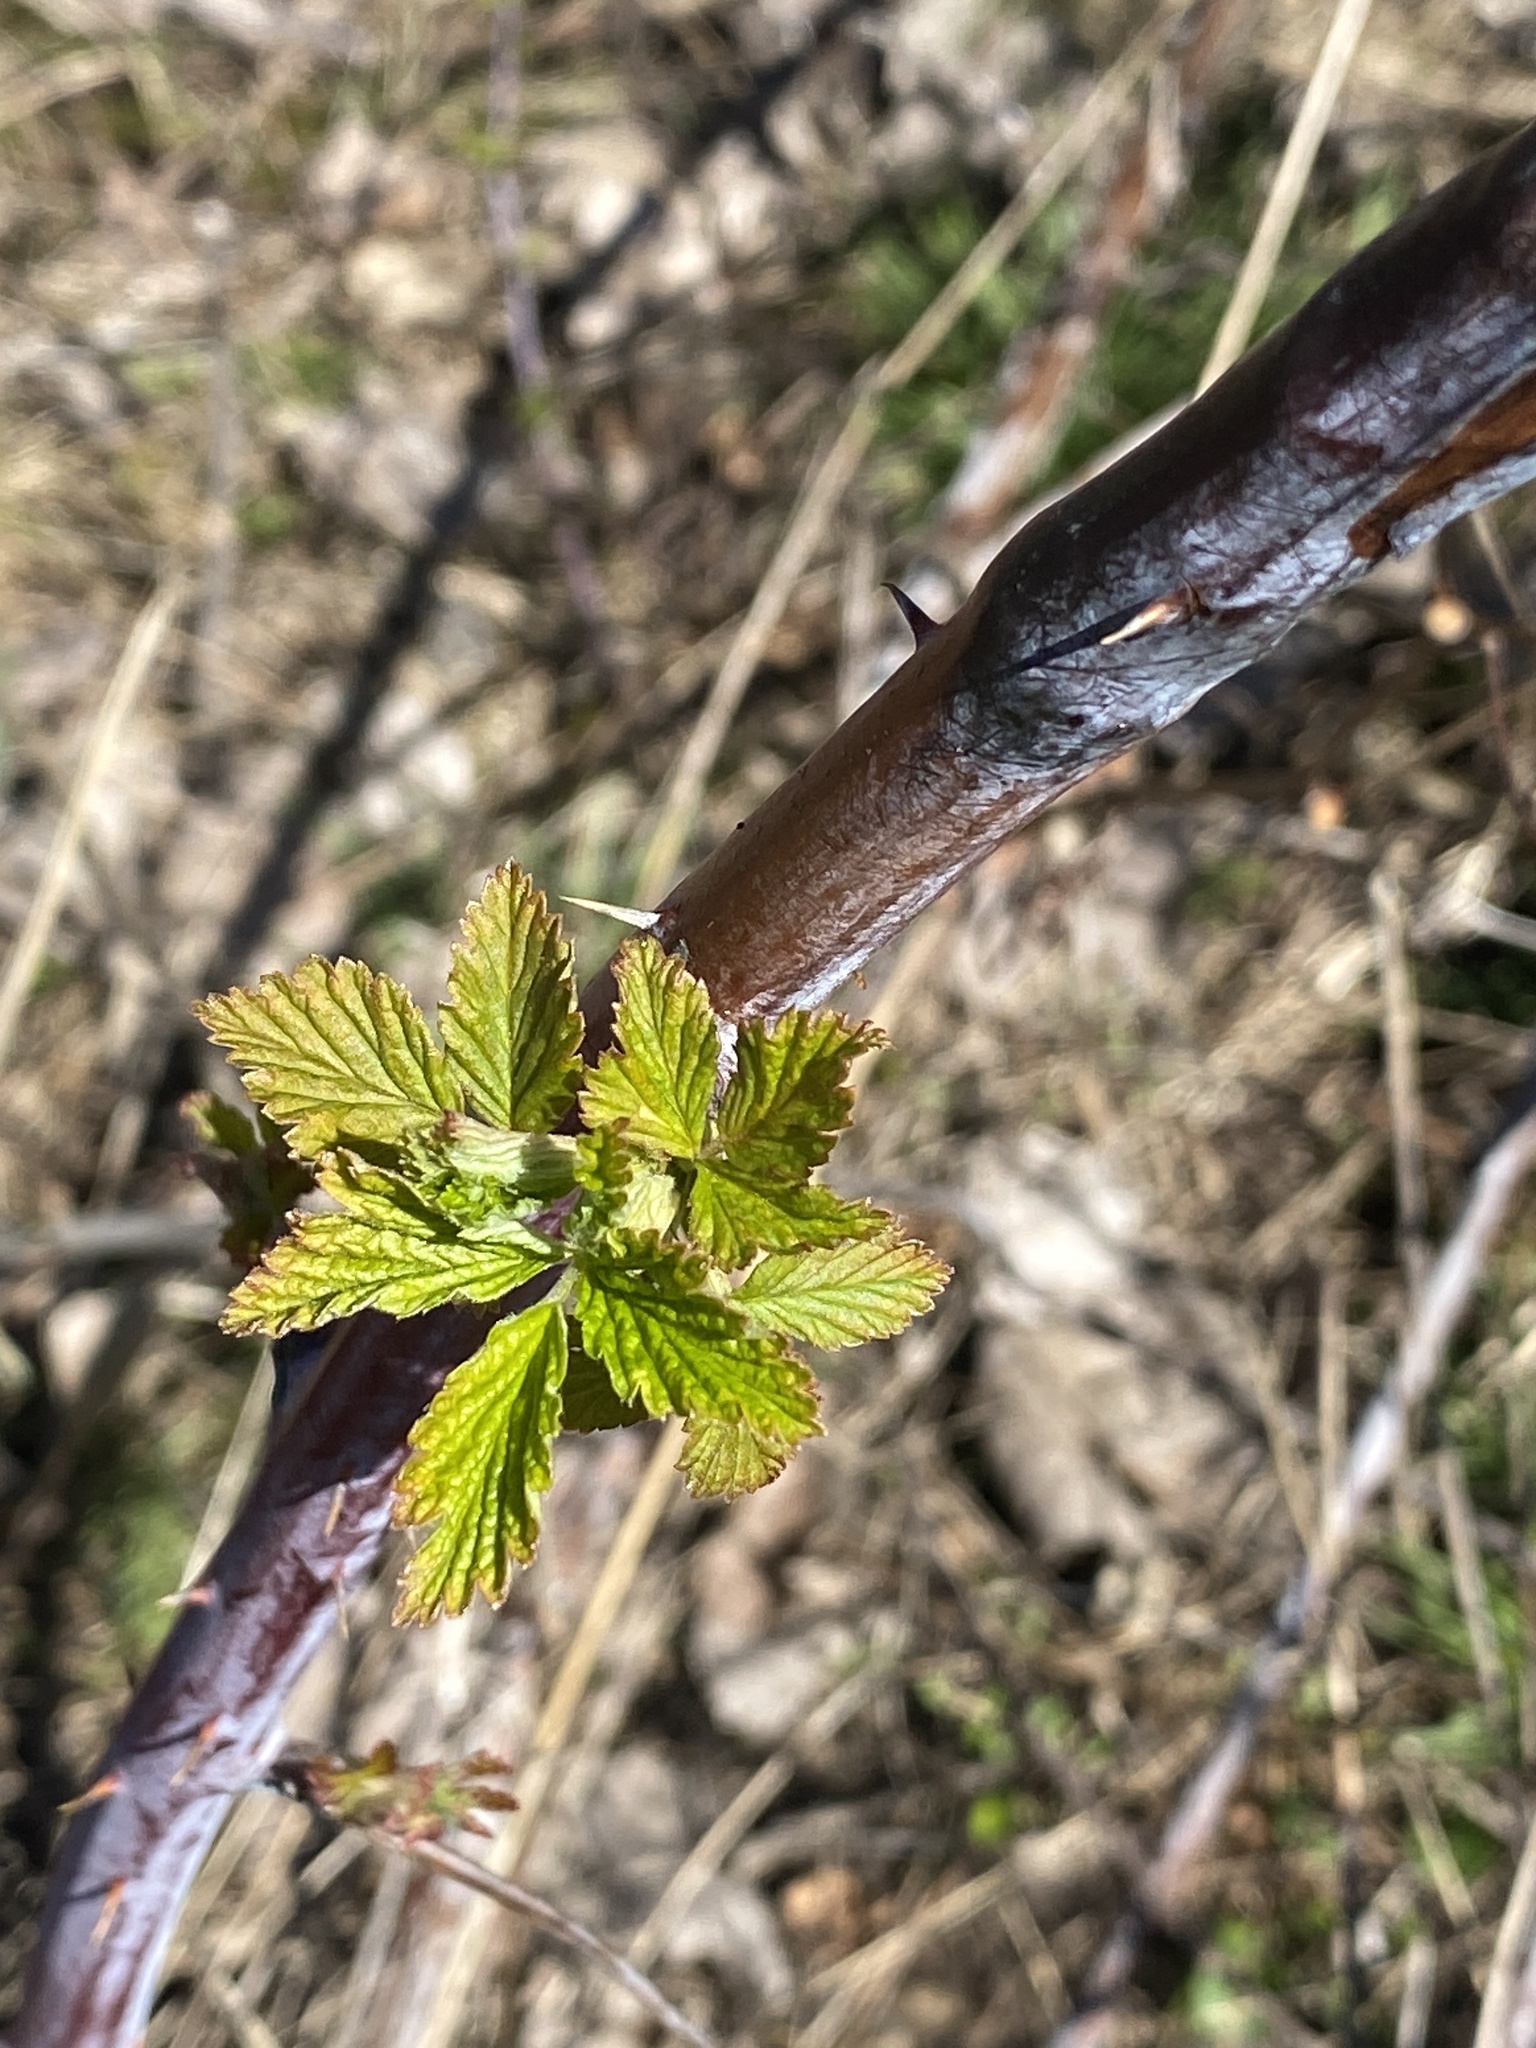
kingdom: Plantae
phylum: Tracheophyta
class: Magnoliopsida
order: Rosales
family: Rosaceae
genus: Rubus
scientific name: Rubus occidentalis
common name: Black raspberry
